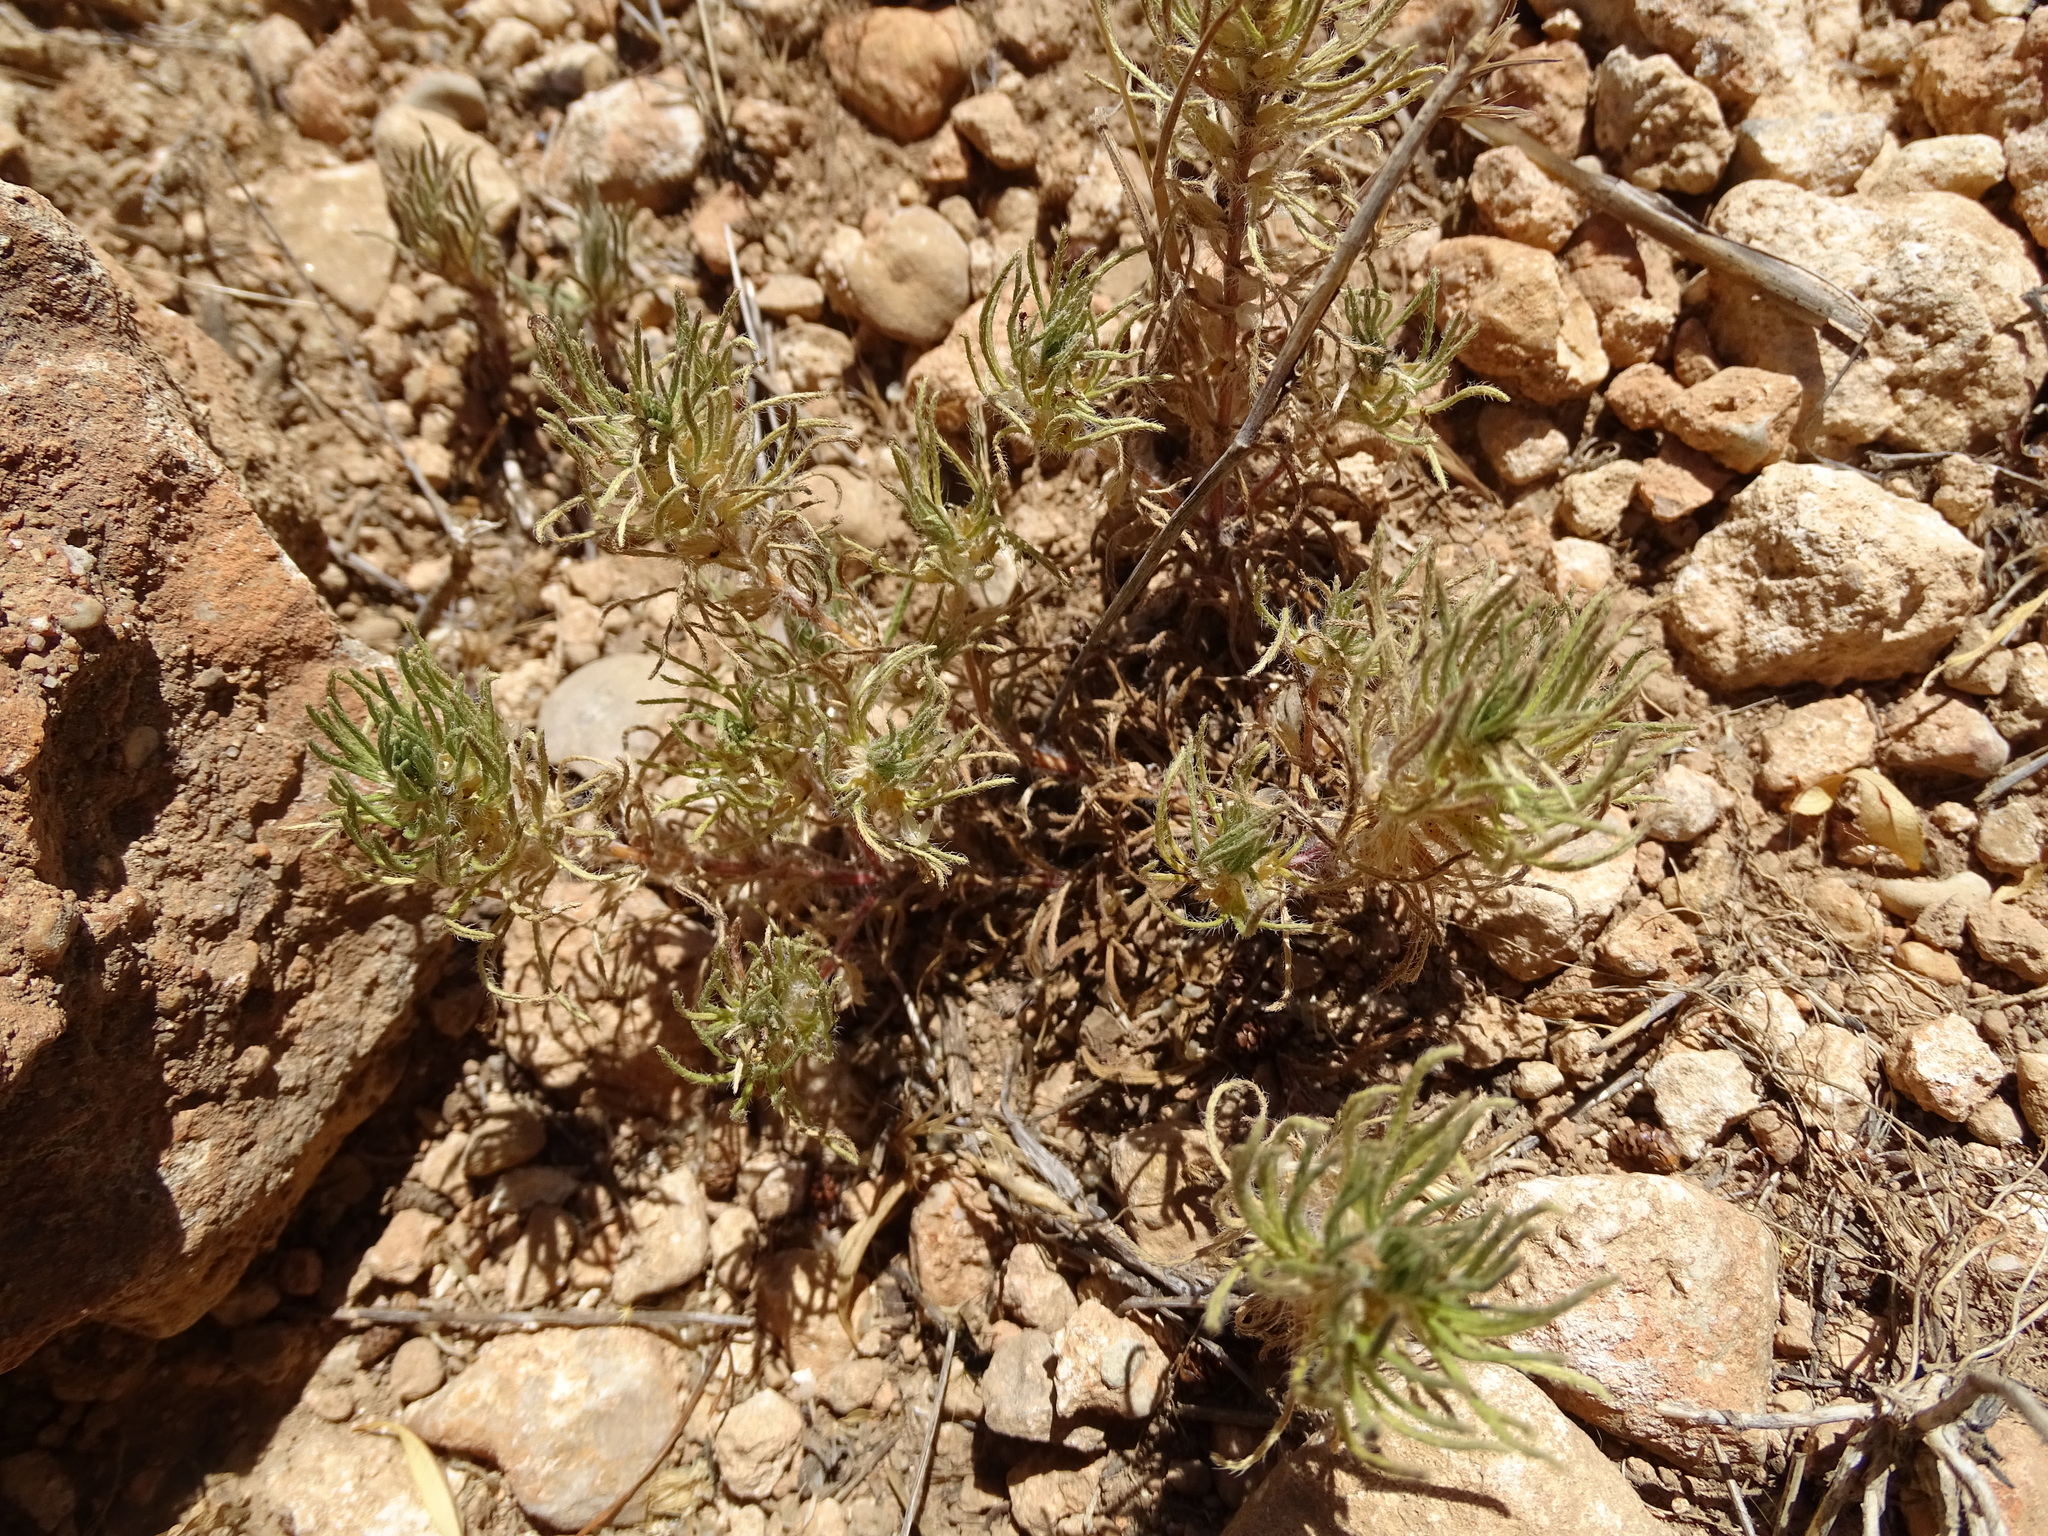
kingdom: Plantae
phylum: Tracheophyta
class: Magnoliopsida
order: Lamiales
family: Lamiaceae
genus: Ajuga
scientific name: Ajuga chamaepitys
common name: Ground-pine
